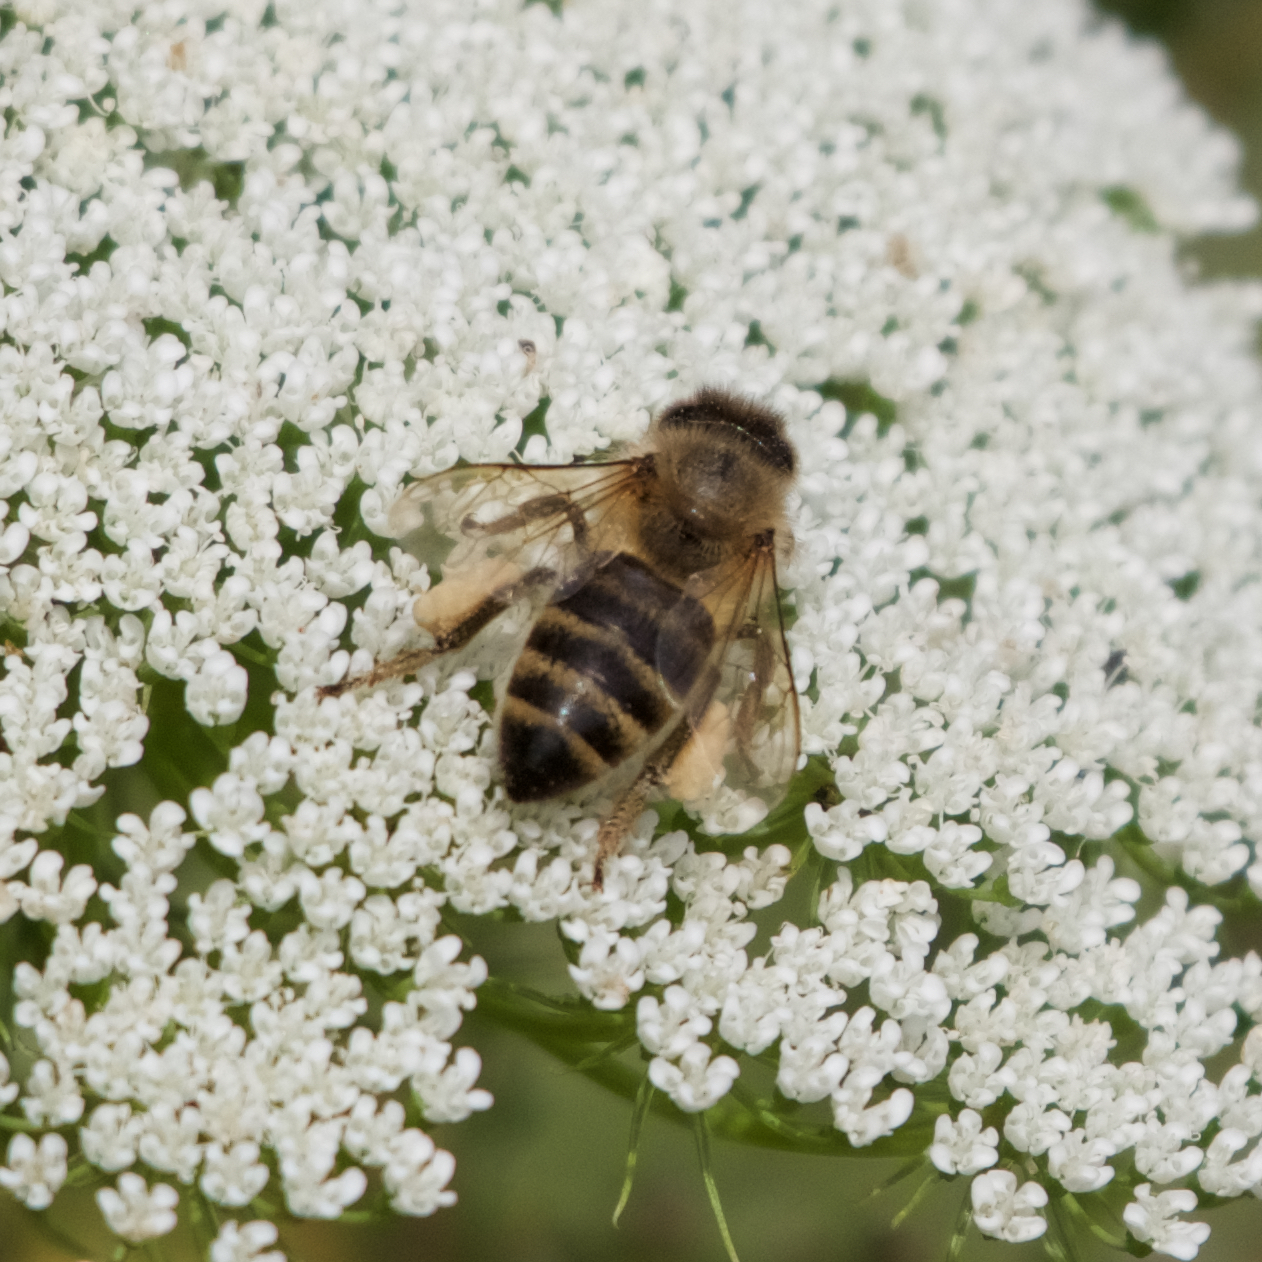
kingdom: Animalia
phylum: Arthropoda
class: Insecta
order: Hymenoptera
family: Apidae
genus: Apis
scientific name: Apis mellifera
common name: Honey bee
